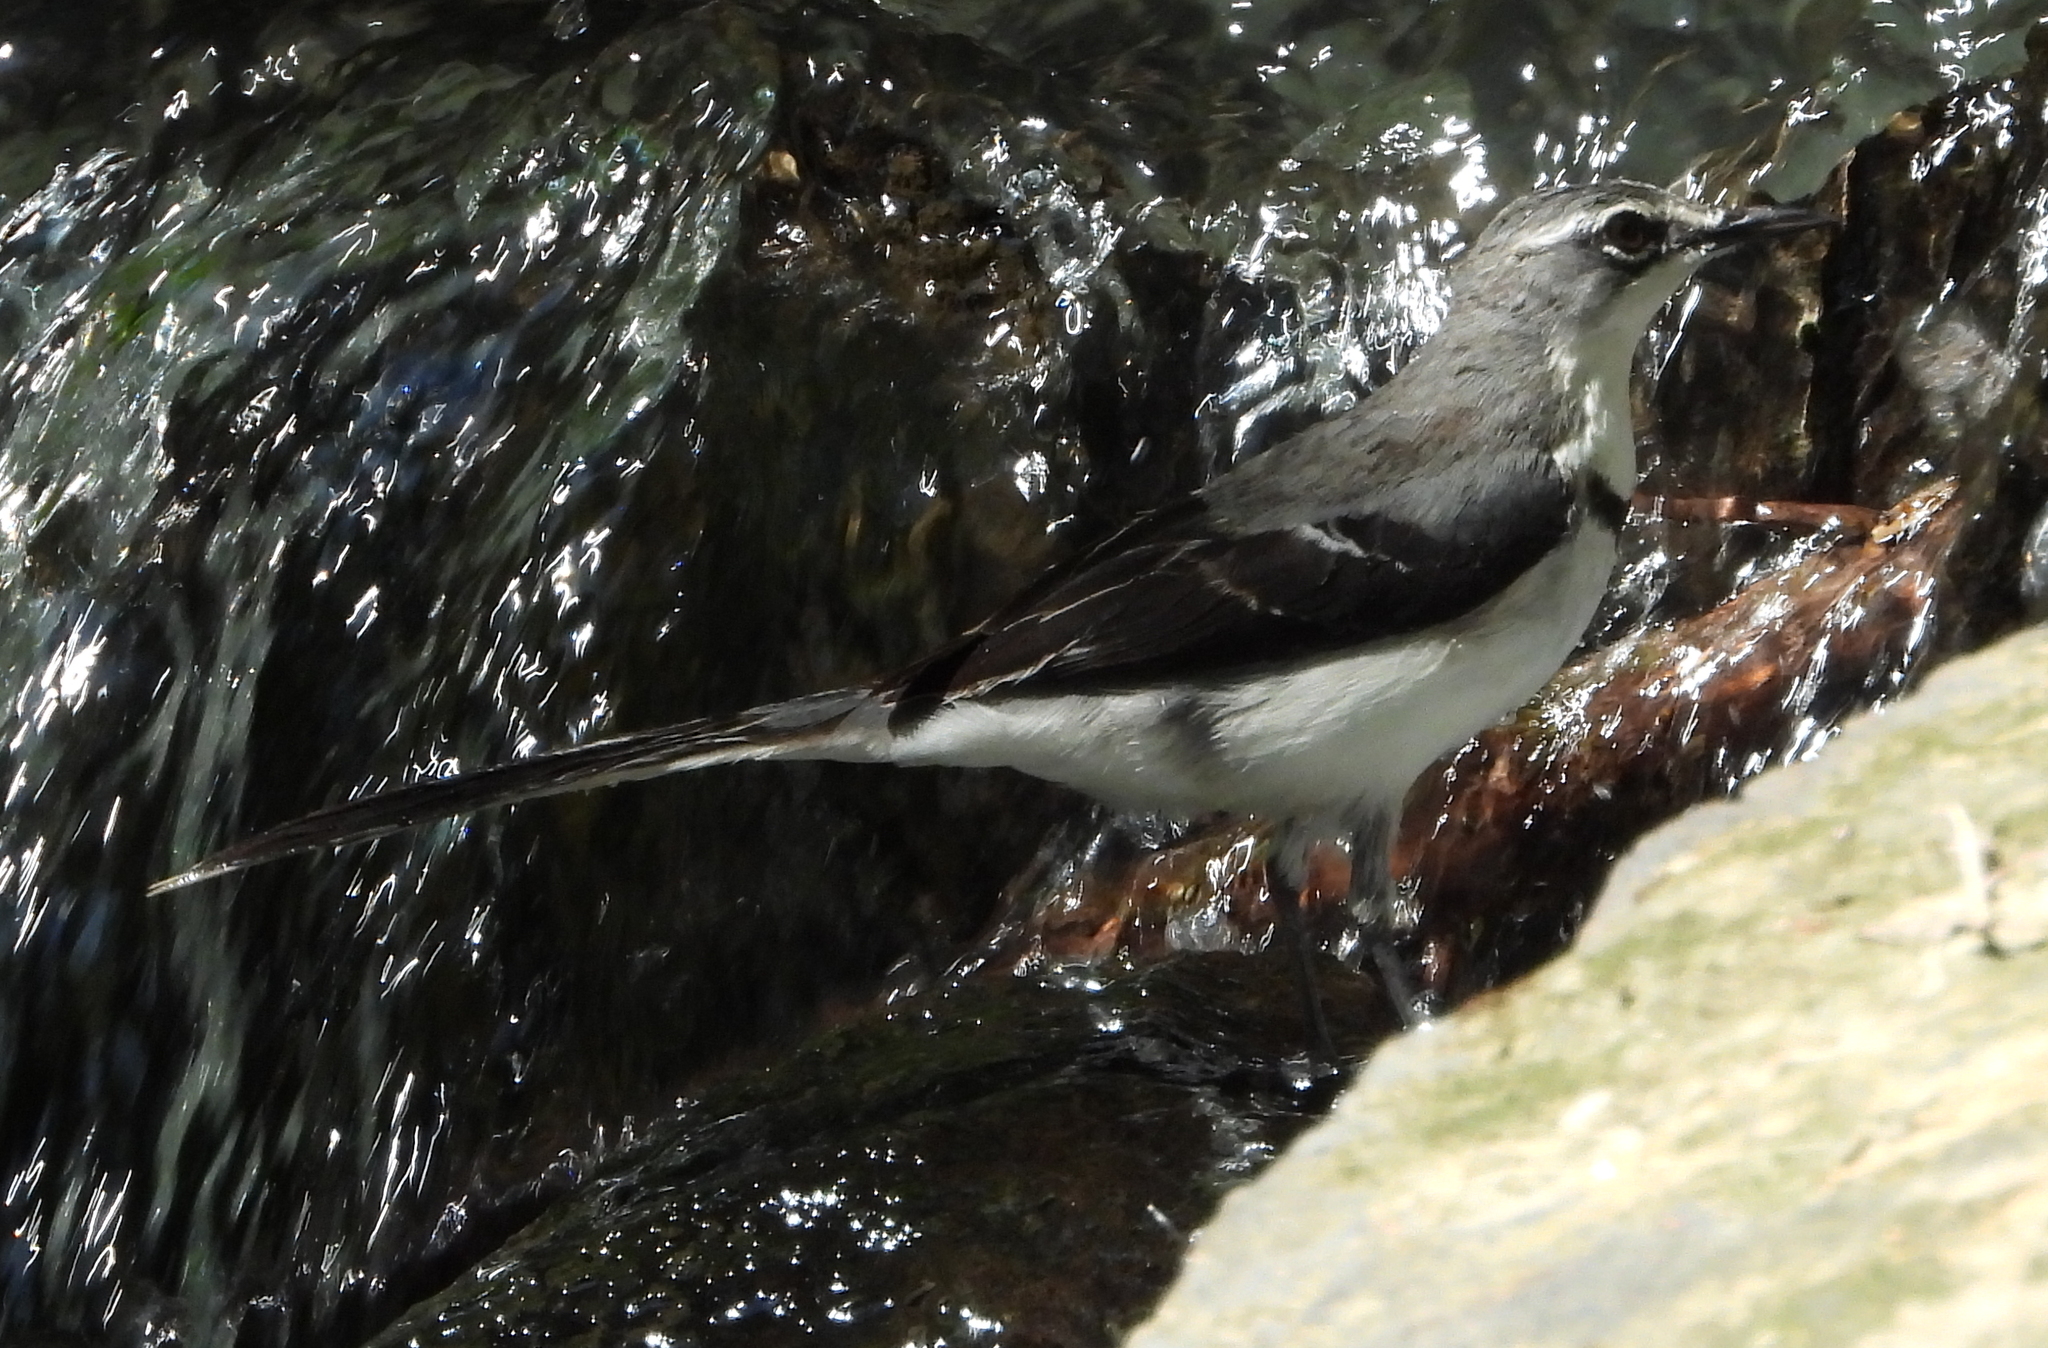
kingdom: Animalia
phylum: Chordata
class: Aves
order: Passeriformes
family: Motacillidae
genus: Motacilla
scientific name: Motacilla clara
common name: Mountain wagtail
